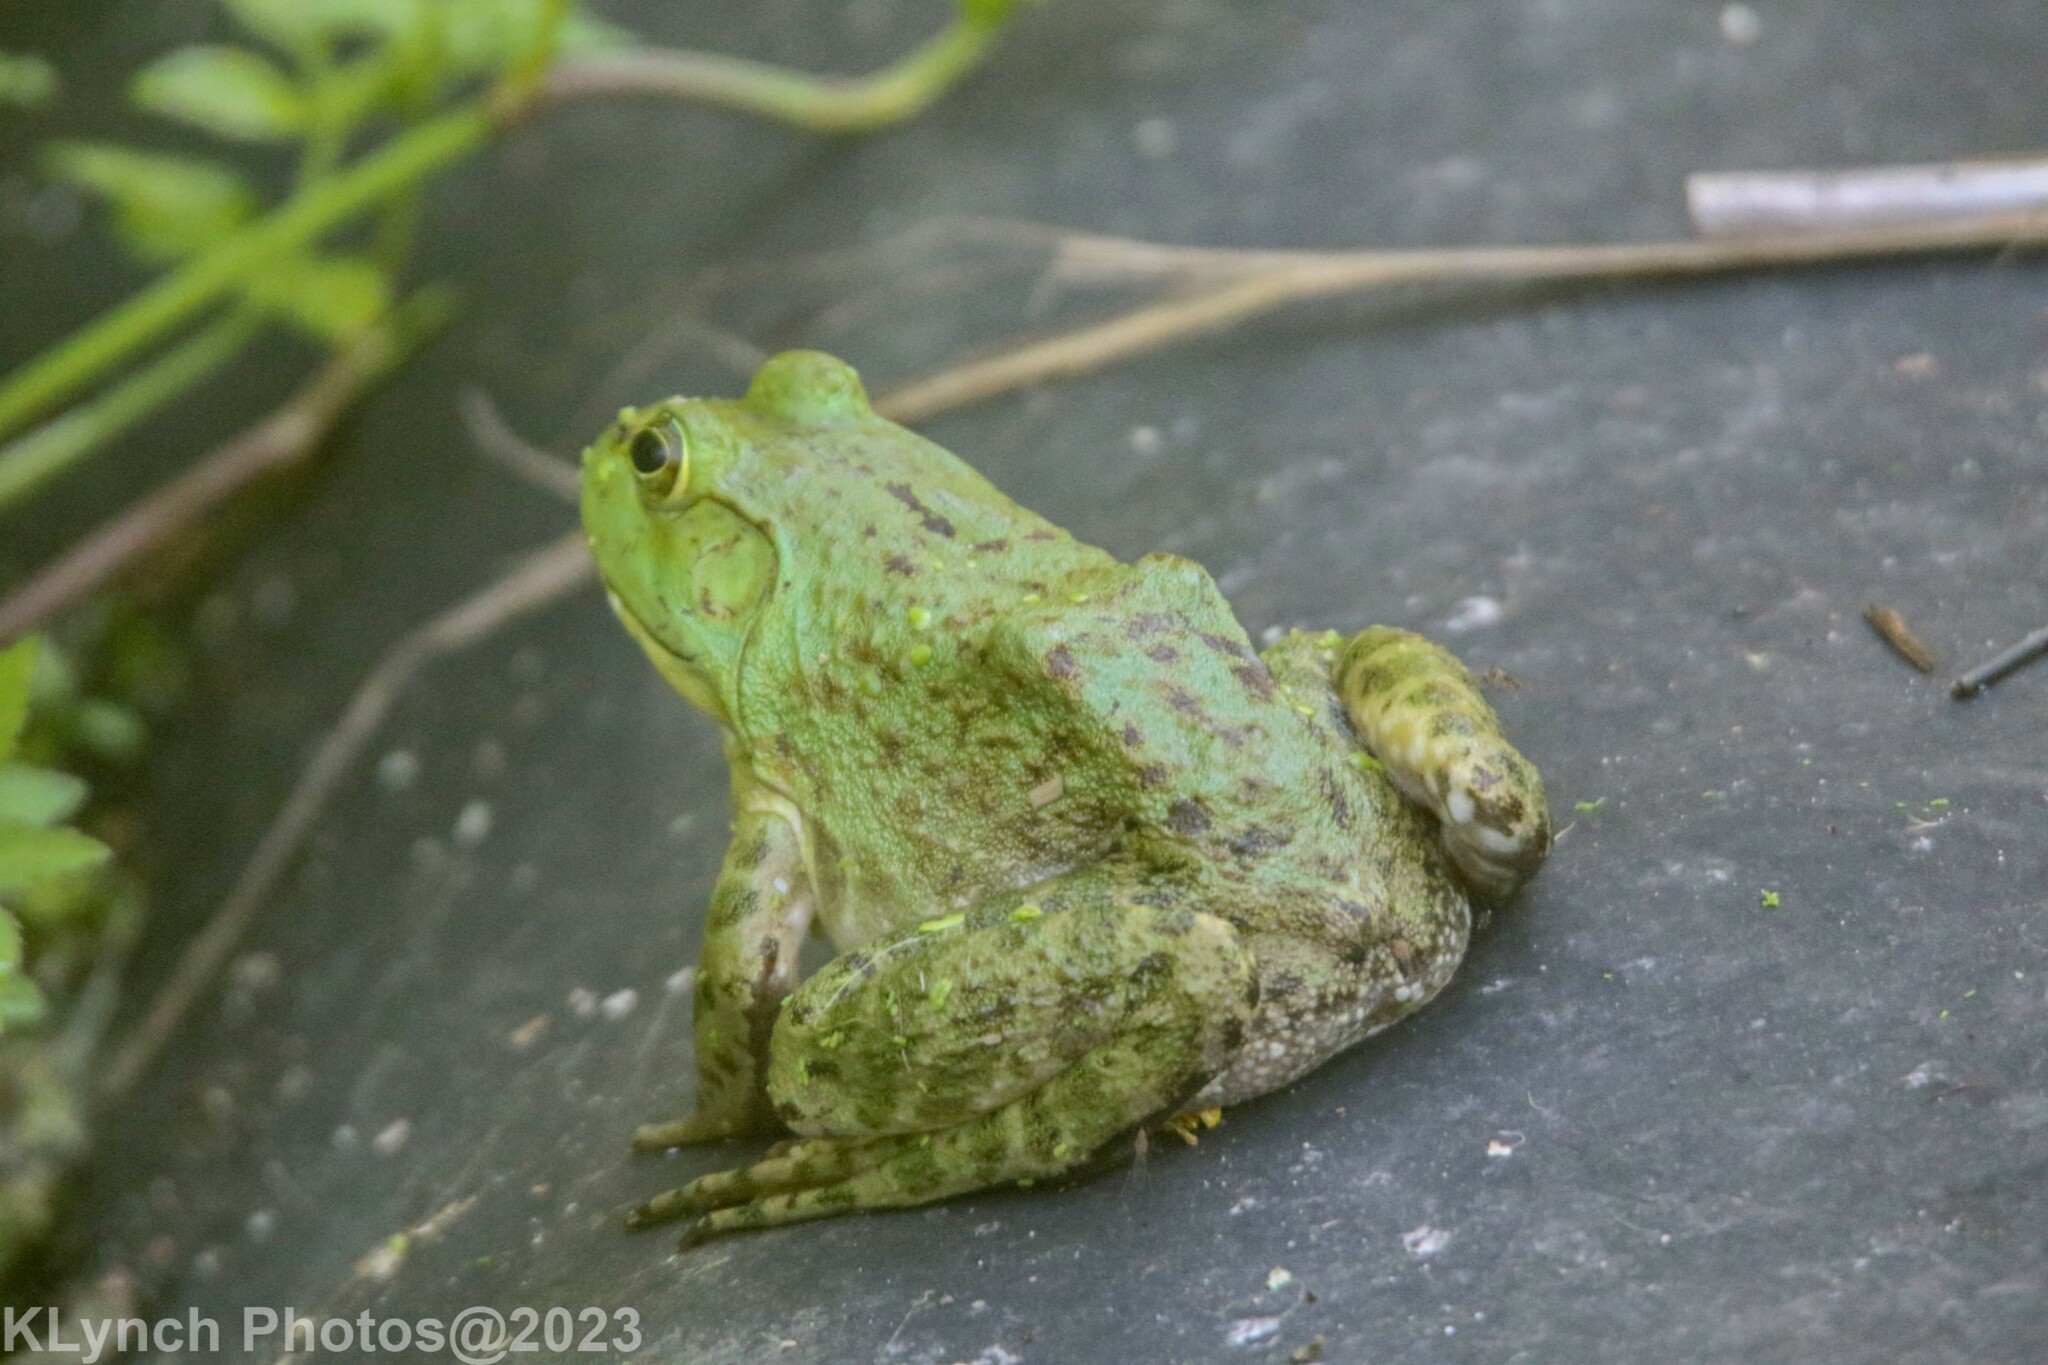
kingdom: Animalia
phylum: Chordata
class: Amphibia
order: Anura
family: Ranidae
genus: Lithobates
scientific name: Lithobates catesbeianus
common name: American bullfrog
